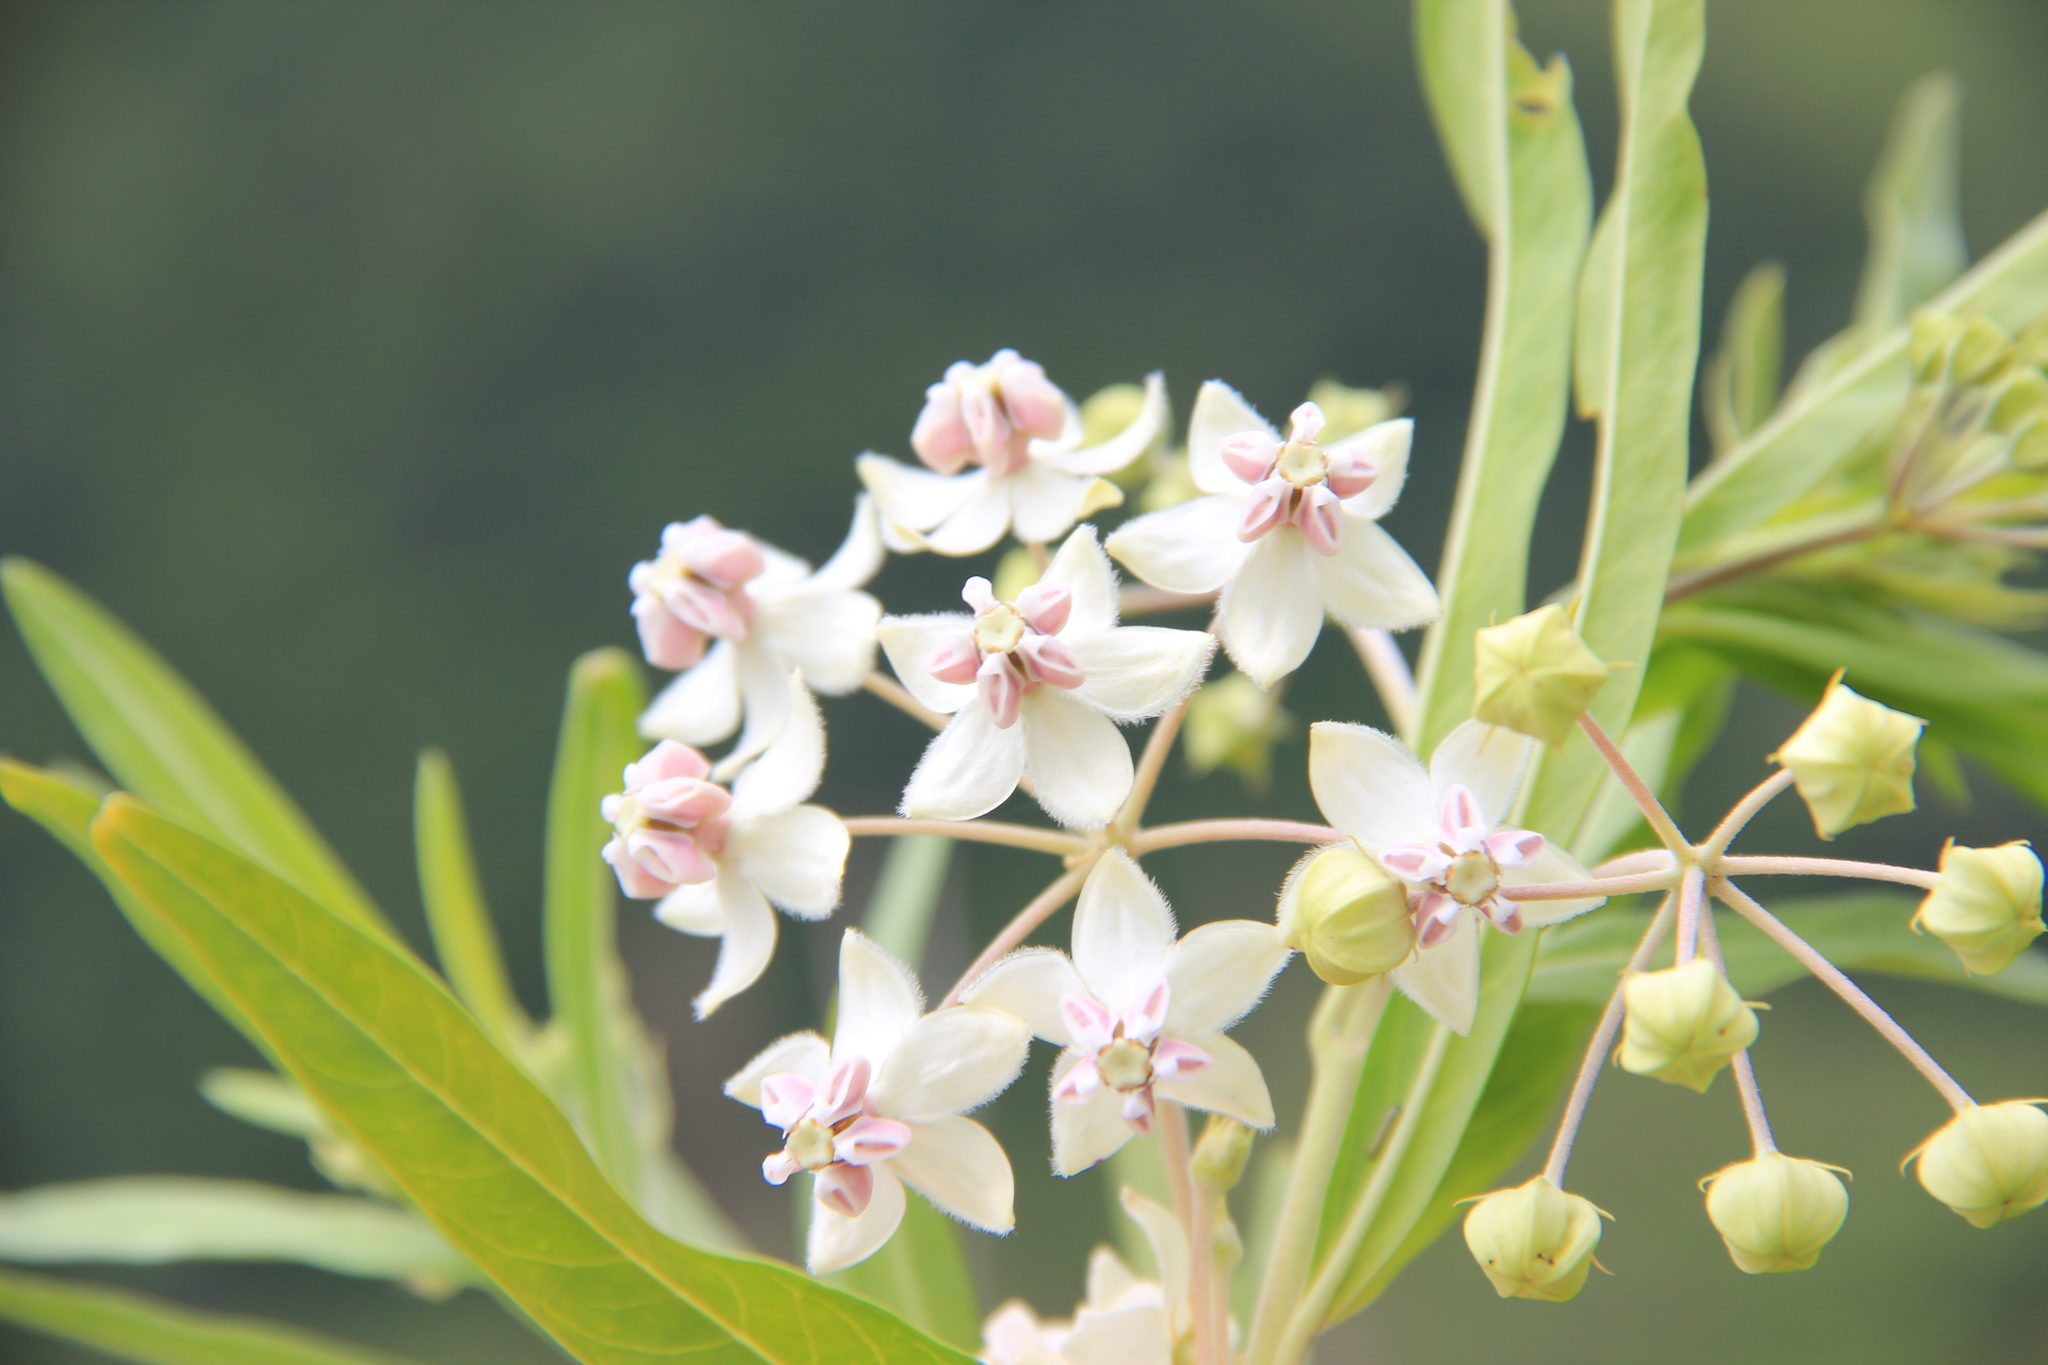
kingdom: Plantae
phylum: Tracheophyta
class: Magnoliopsida
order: Gentianales
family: Apocynaceae
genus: Gomphocarpus
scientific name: Gomphocarpus physocarpus
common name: Balloon cotton bush
